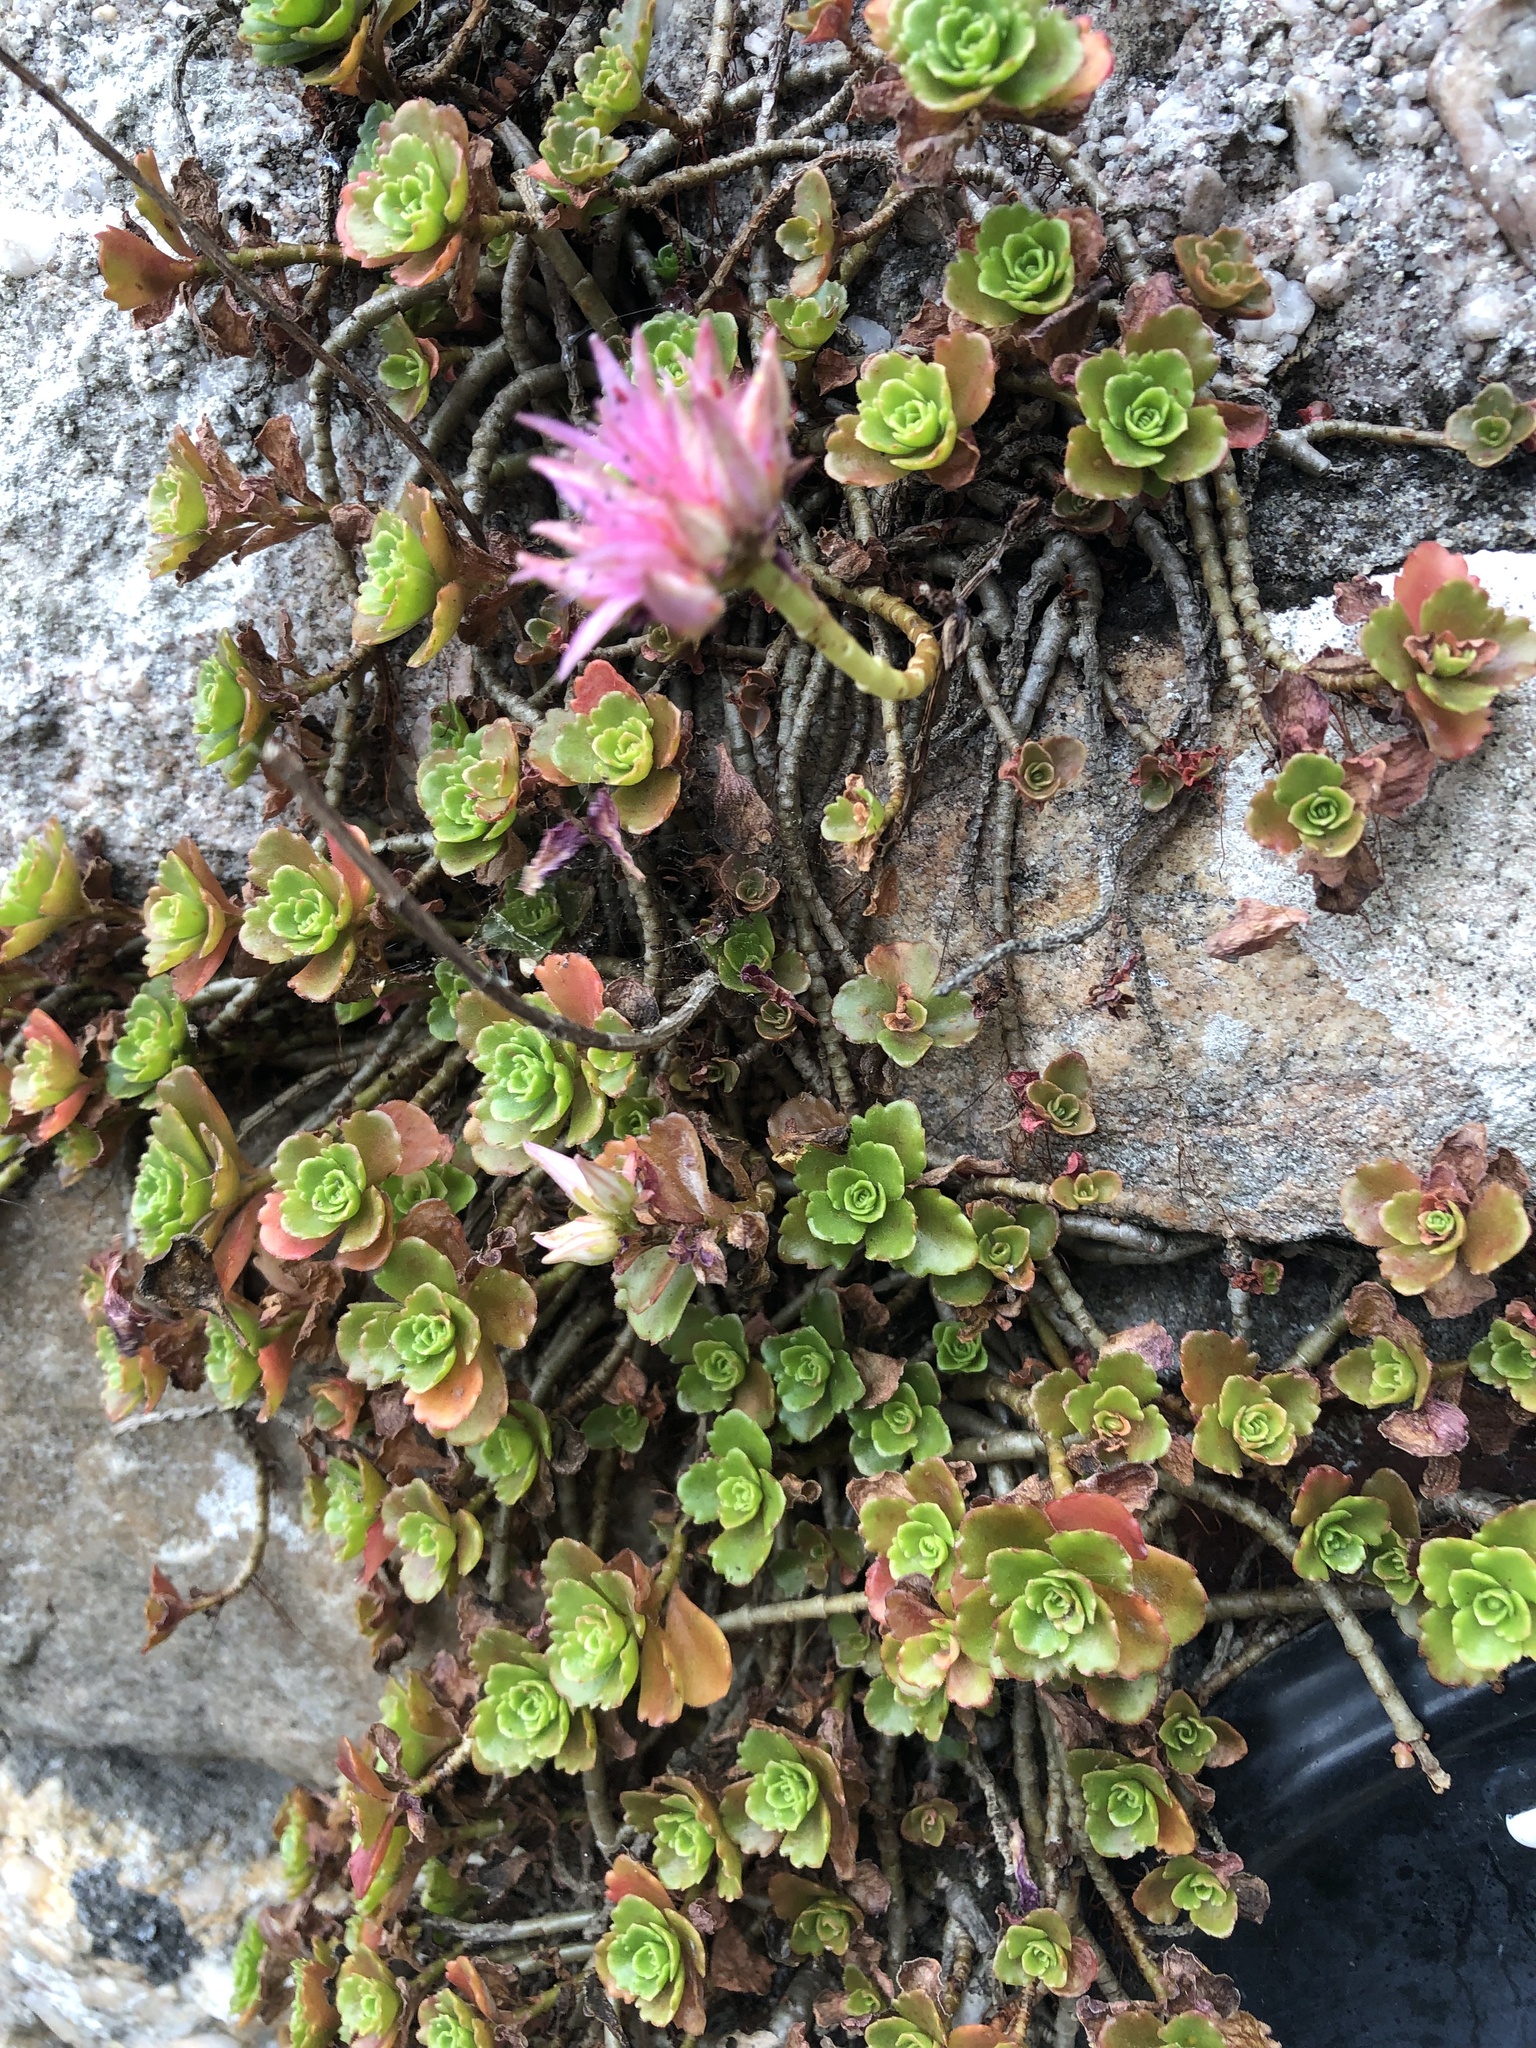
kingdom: Plantae
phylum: Tracheophyta
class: Magnoliopsida
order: Saxifragales
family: Crassulaceae
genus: Phedimus
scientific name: Phedimus spurius
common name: Caucasian stonecrop
